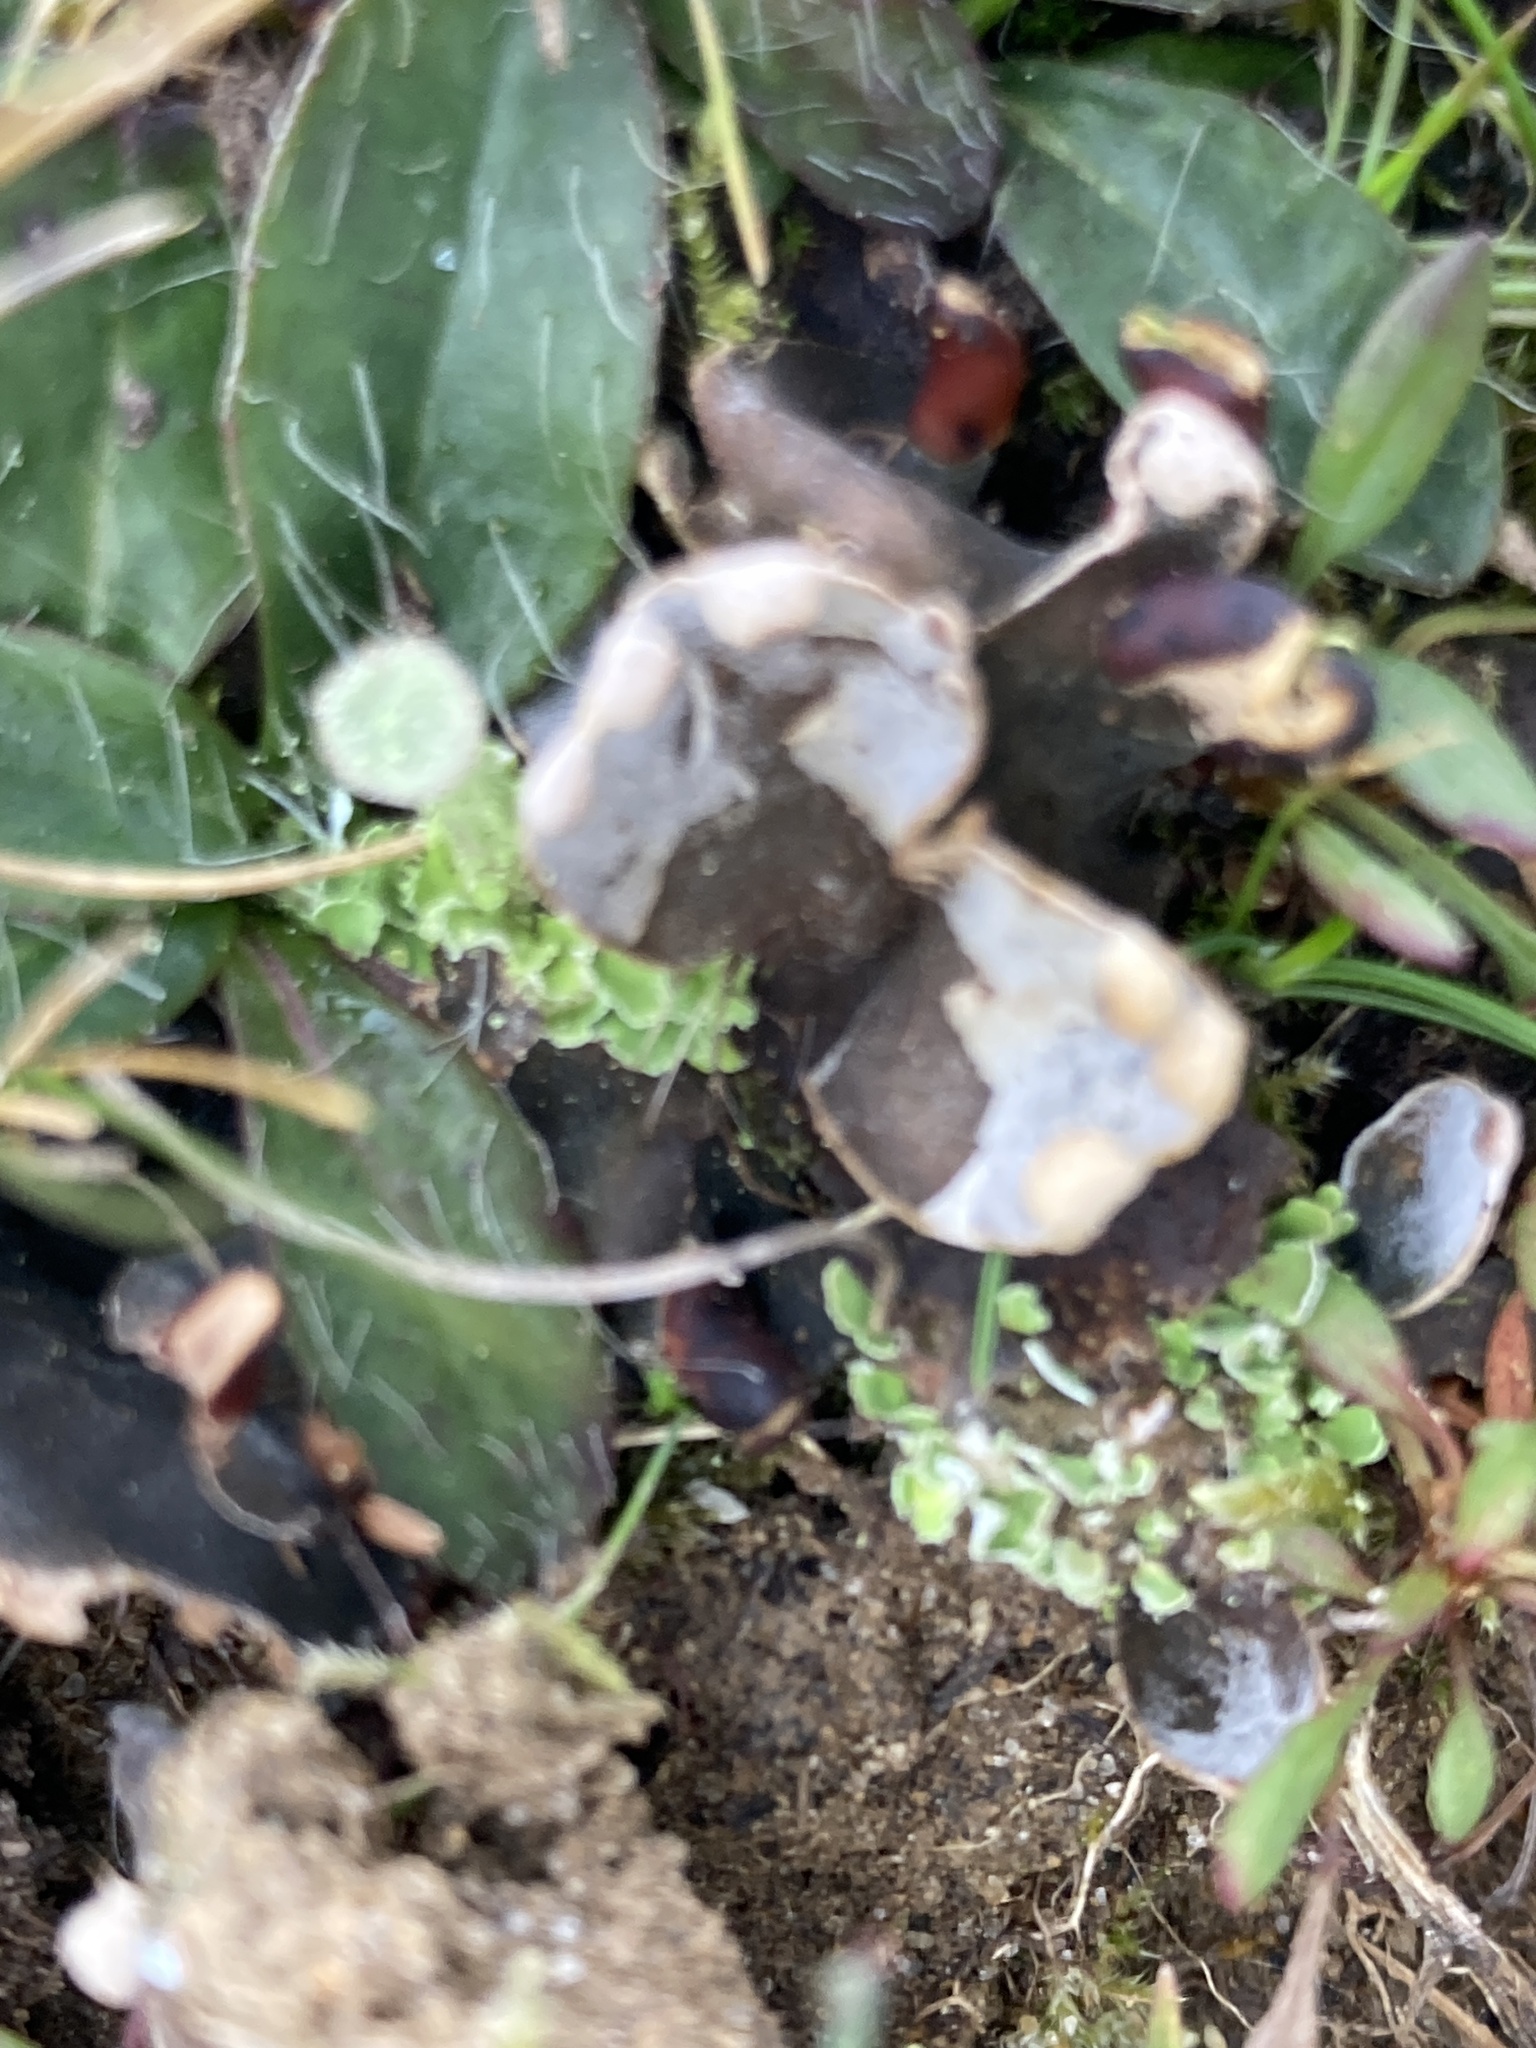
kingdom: Fungi
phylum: Ascomycota
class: Lecanoromycetes
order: Peltigerales
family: Peltigeraceae
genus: Peltigera
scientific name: Peltigera didactyla
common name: Alternating dog lichen
